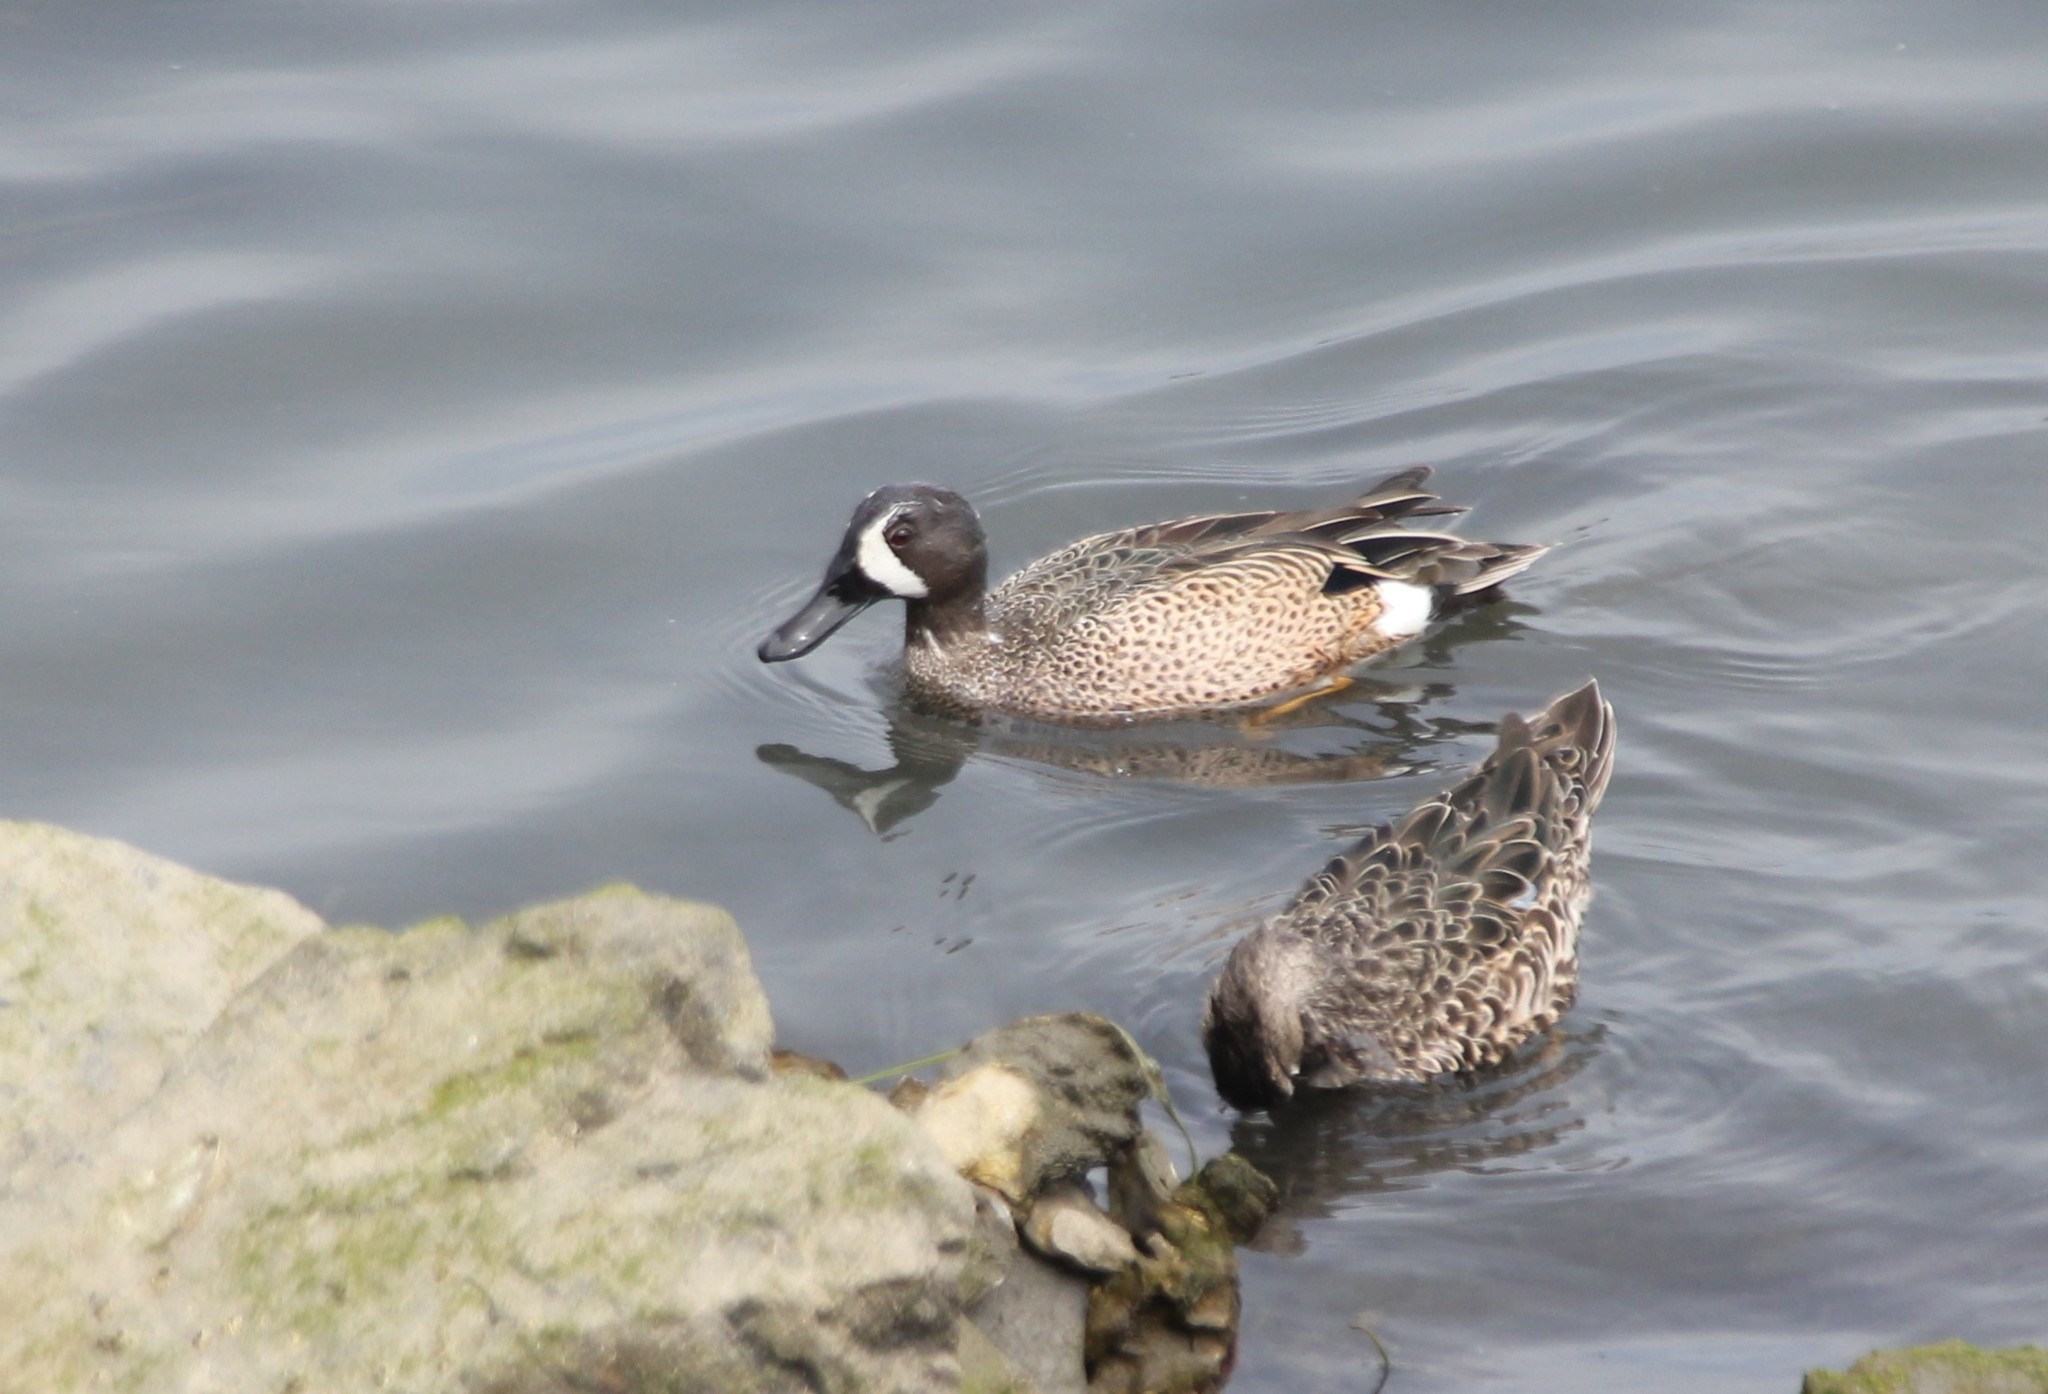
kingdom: Animalia
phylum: Chordata
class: Aves
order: Anseriformes
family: Anatidae
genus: Spatula
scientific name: Spatula discors
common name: Blue-winged teal
